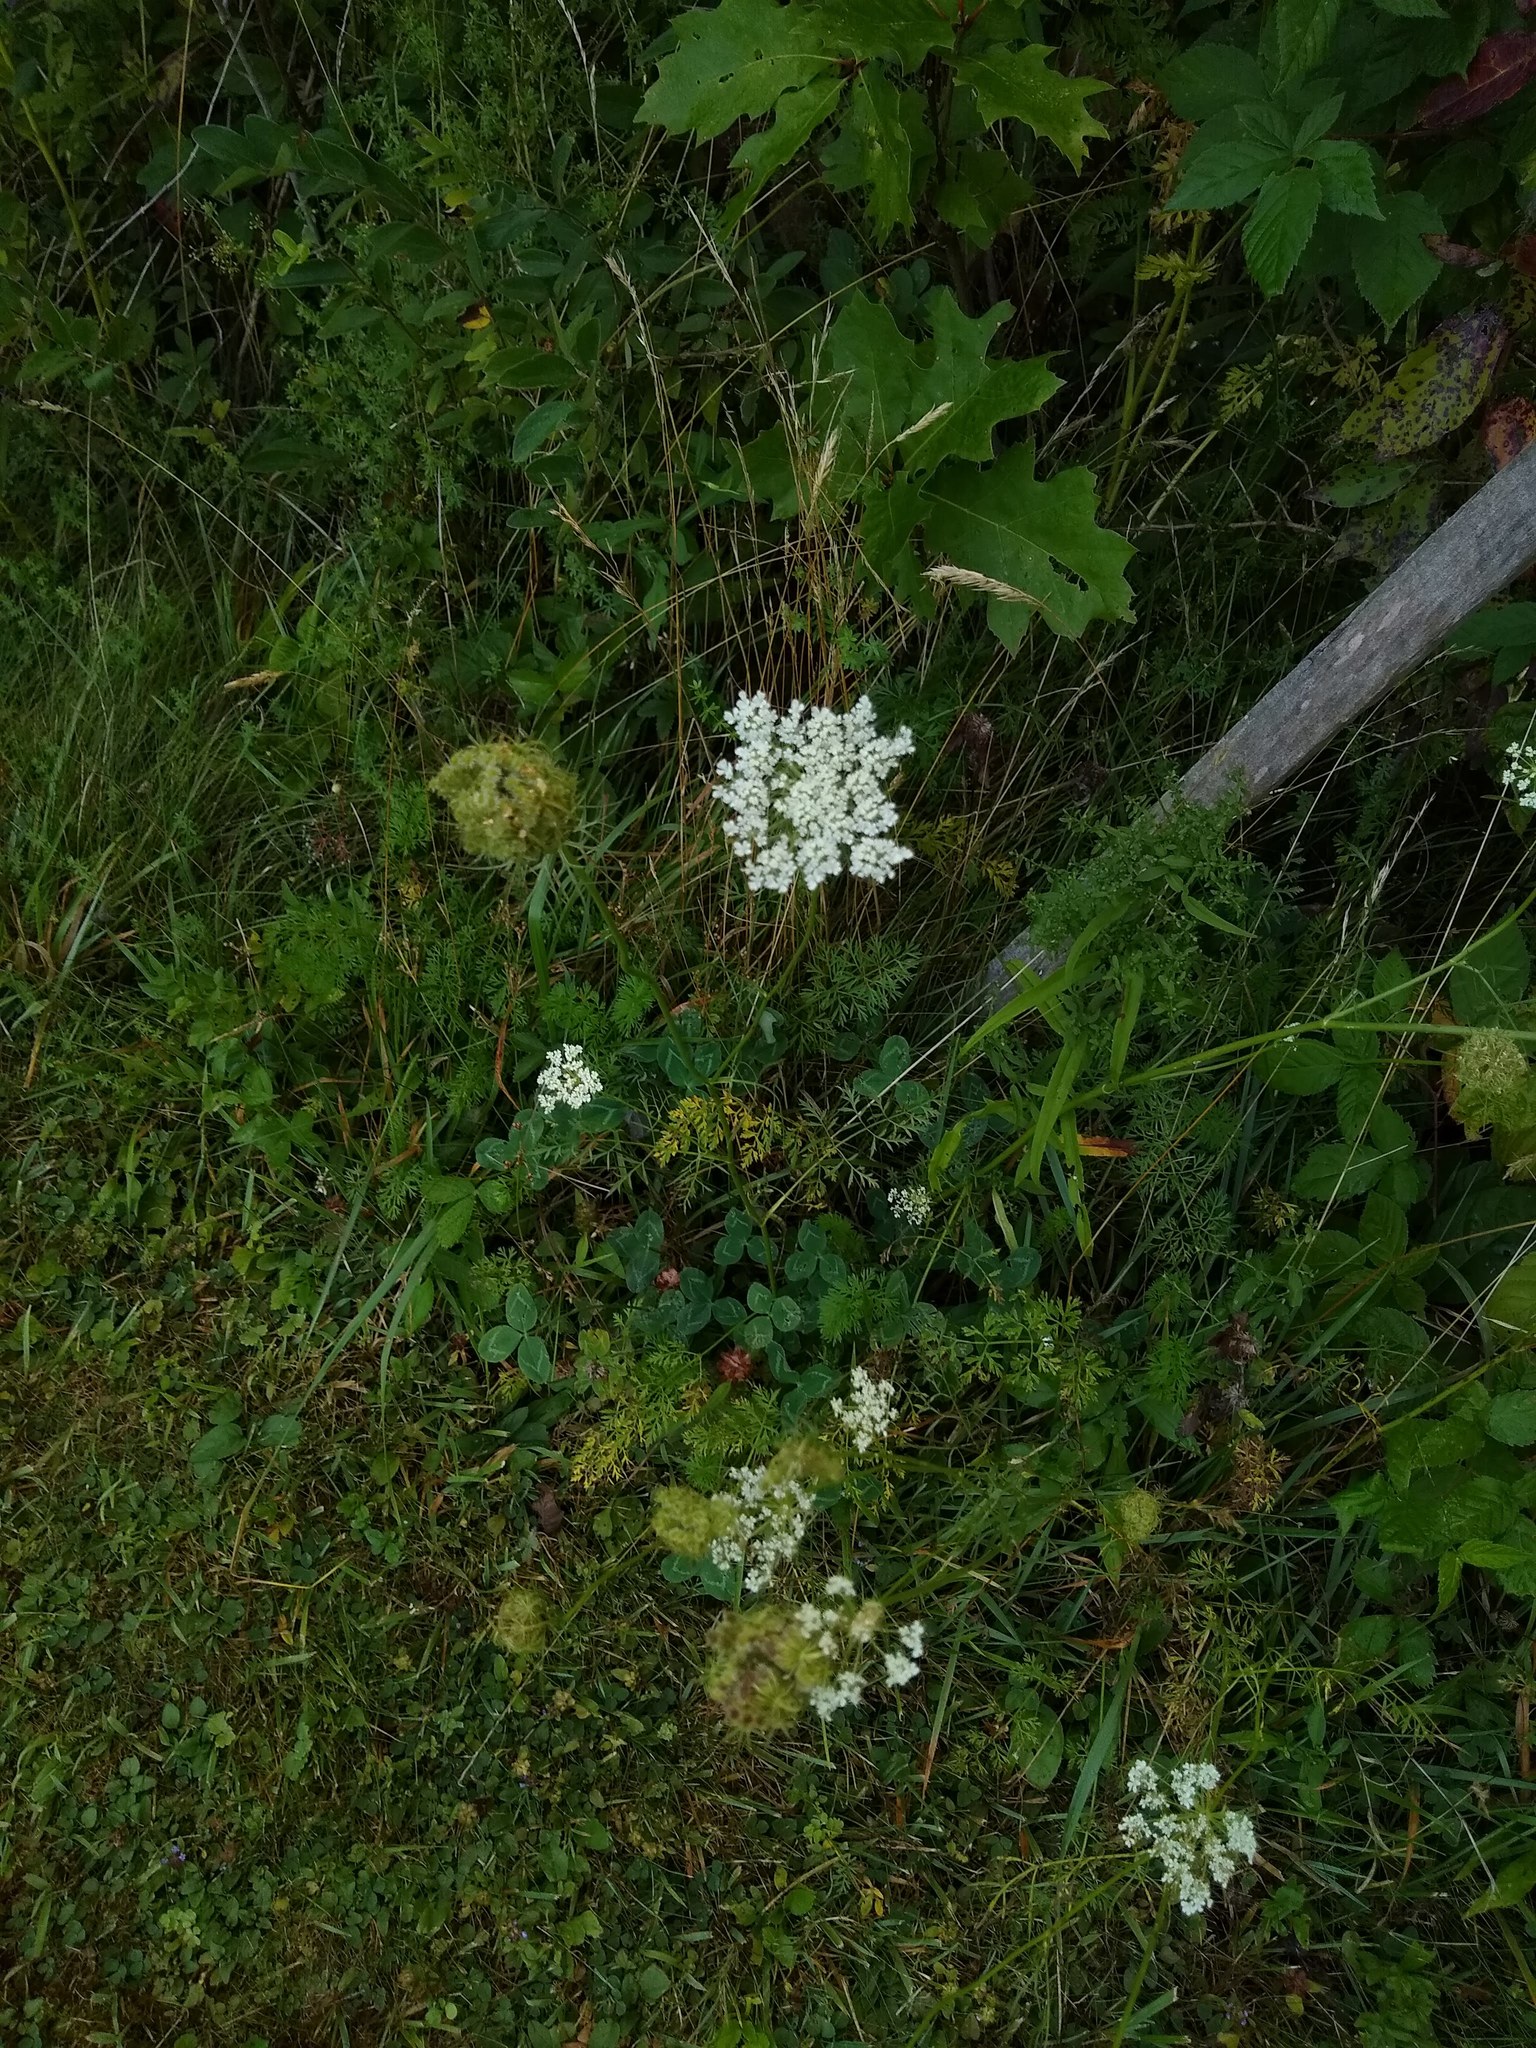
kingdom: Plantae
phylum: Tracheophyta
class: Magnoliopsida
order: Apiales
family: Apiaceae
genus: Daucus
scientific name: Daucus carota
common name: Wild carrot
